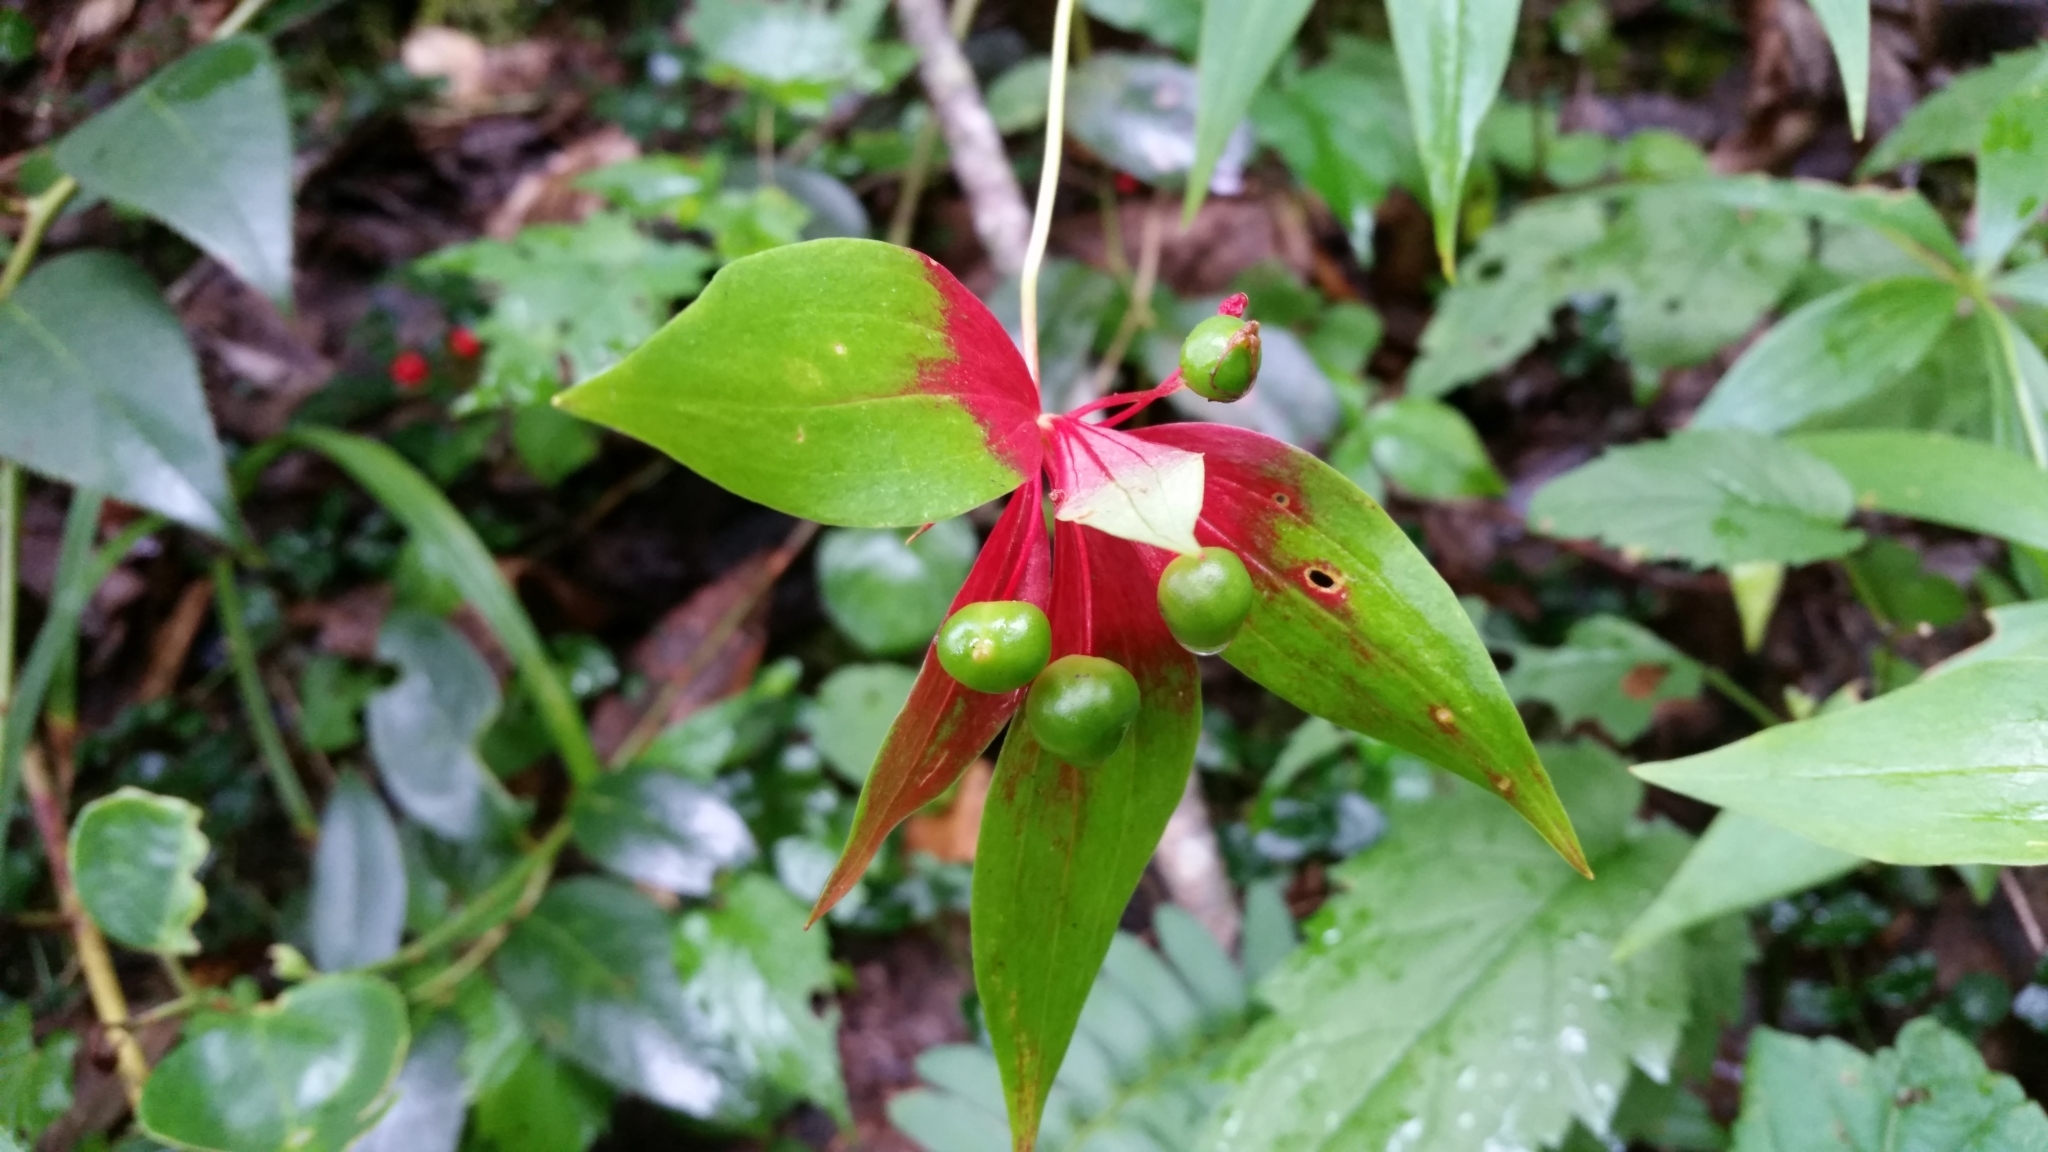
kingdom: Plantae
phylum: Tracheophyta
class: Liliopsida
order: Liliales
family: Liliaceae
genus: Medeola
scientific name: Medeola virginiana
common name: Indian cucumber-root
